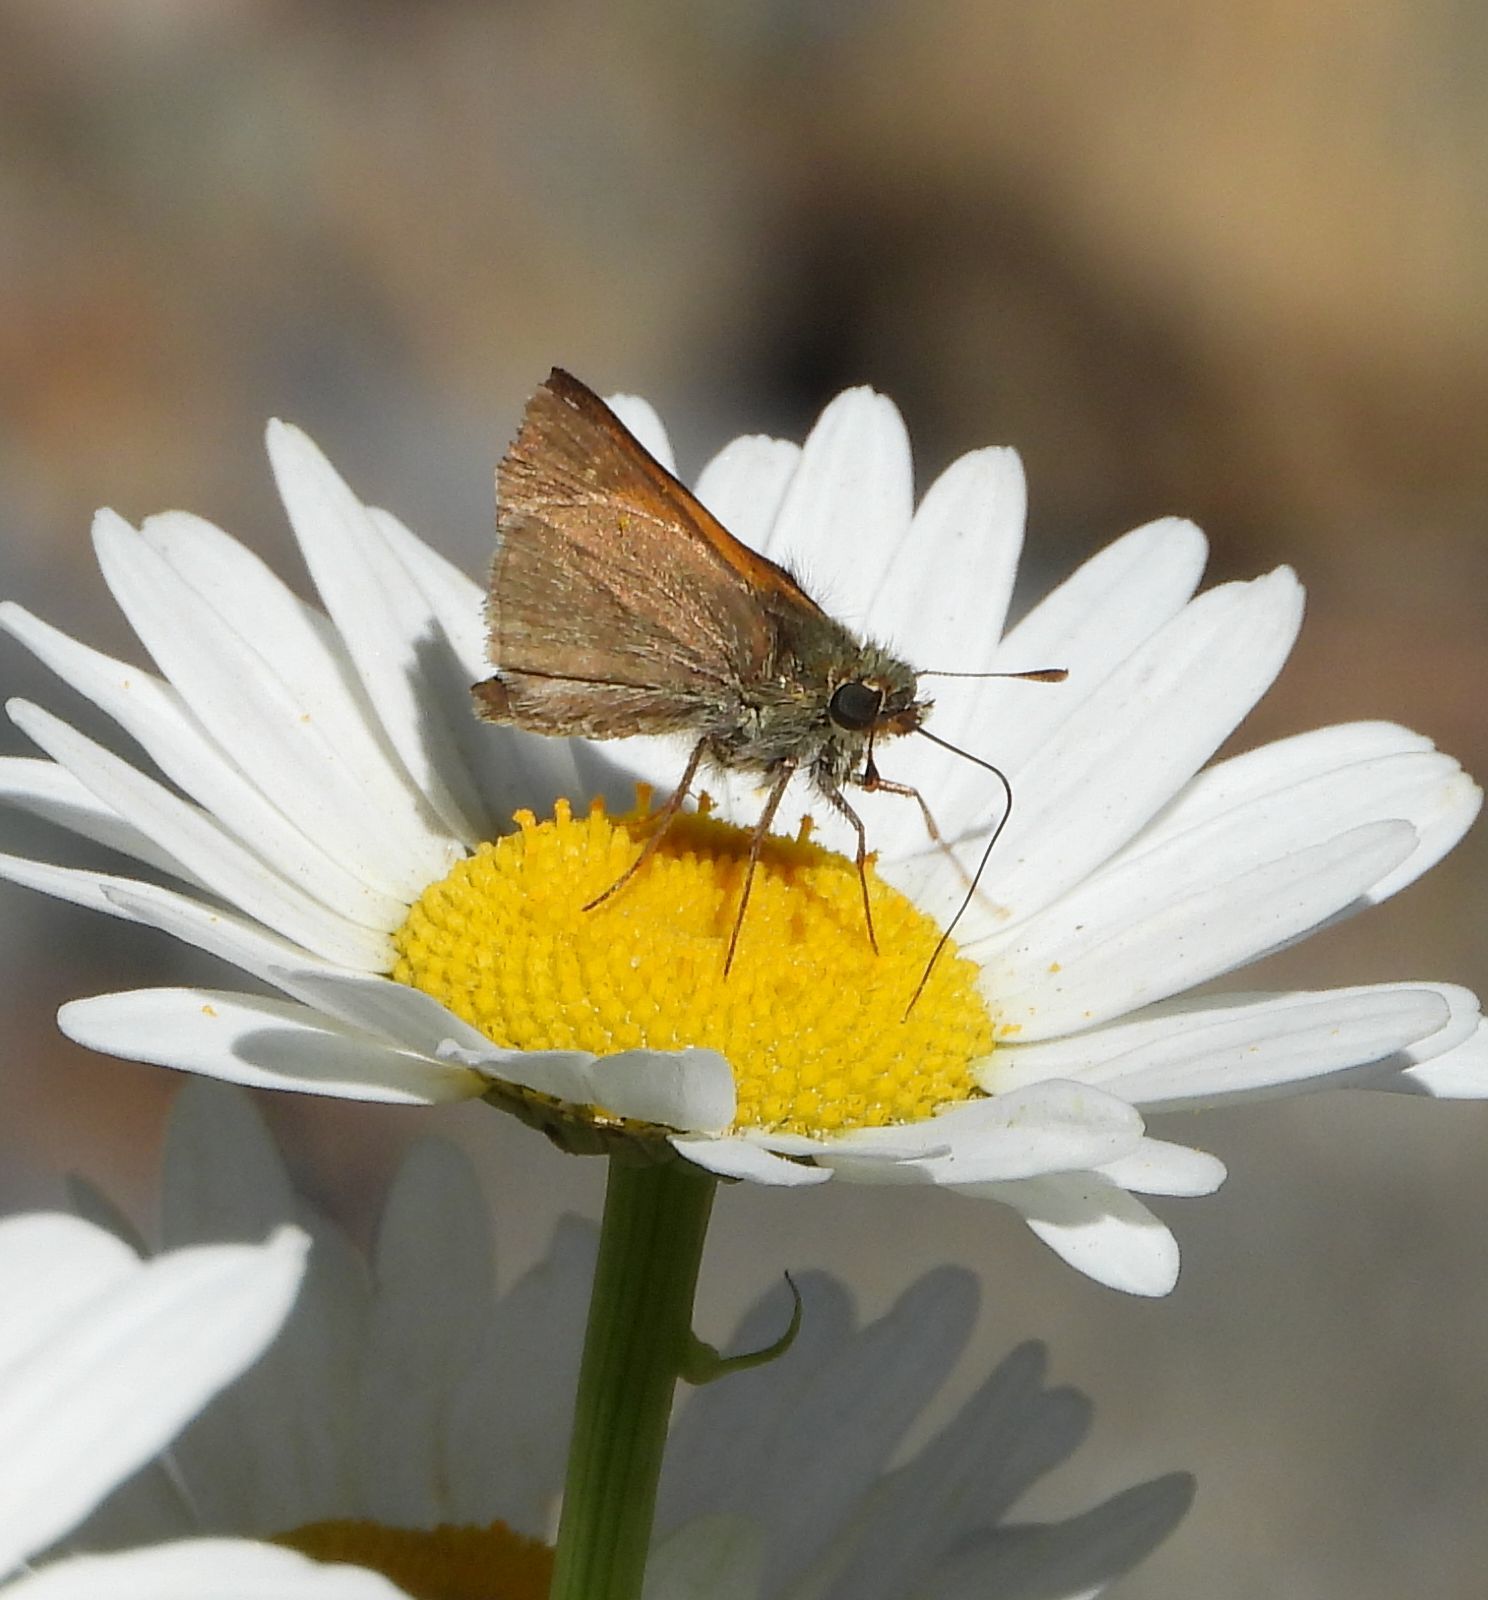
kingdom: Animalia
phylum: Arthropoda
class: Insecta
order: Lepidoptera
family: Hesperiidae
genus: Polites
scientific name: Polites themistocles
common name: Tawny-edged skipper
